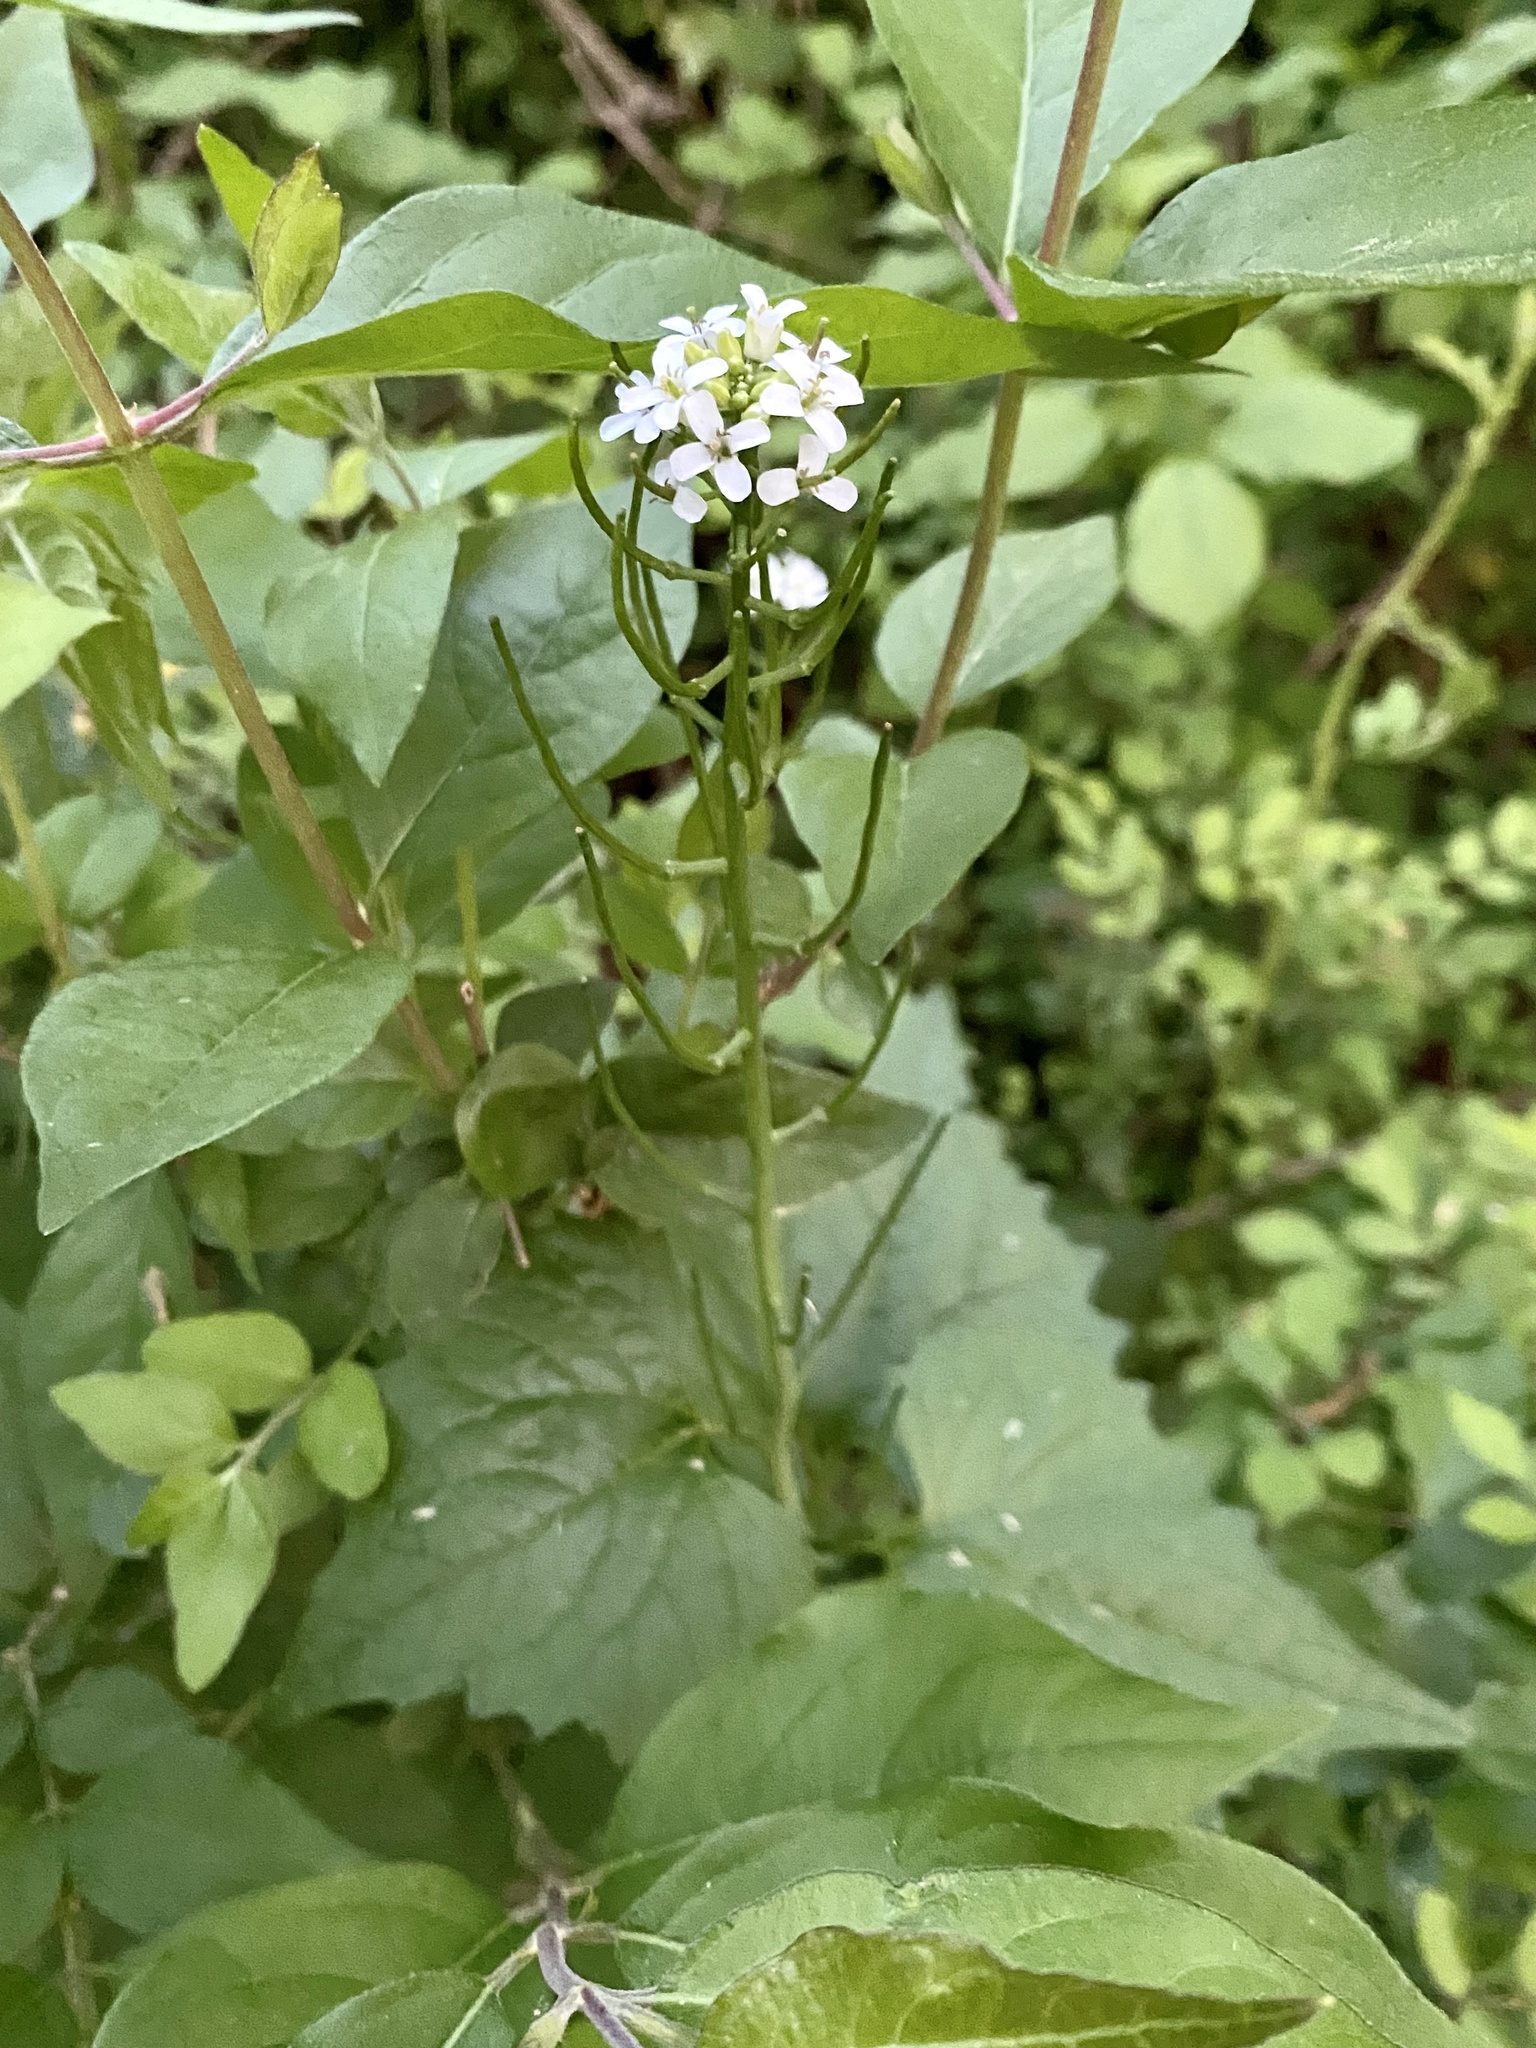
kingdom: Plantae
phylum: Tracheophyta
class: Magnoliopsida
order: Brassicales
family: Brassicaceae
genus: Alliaria
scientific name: Alliaria petiolata
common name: Garlic mustard
